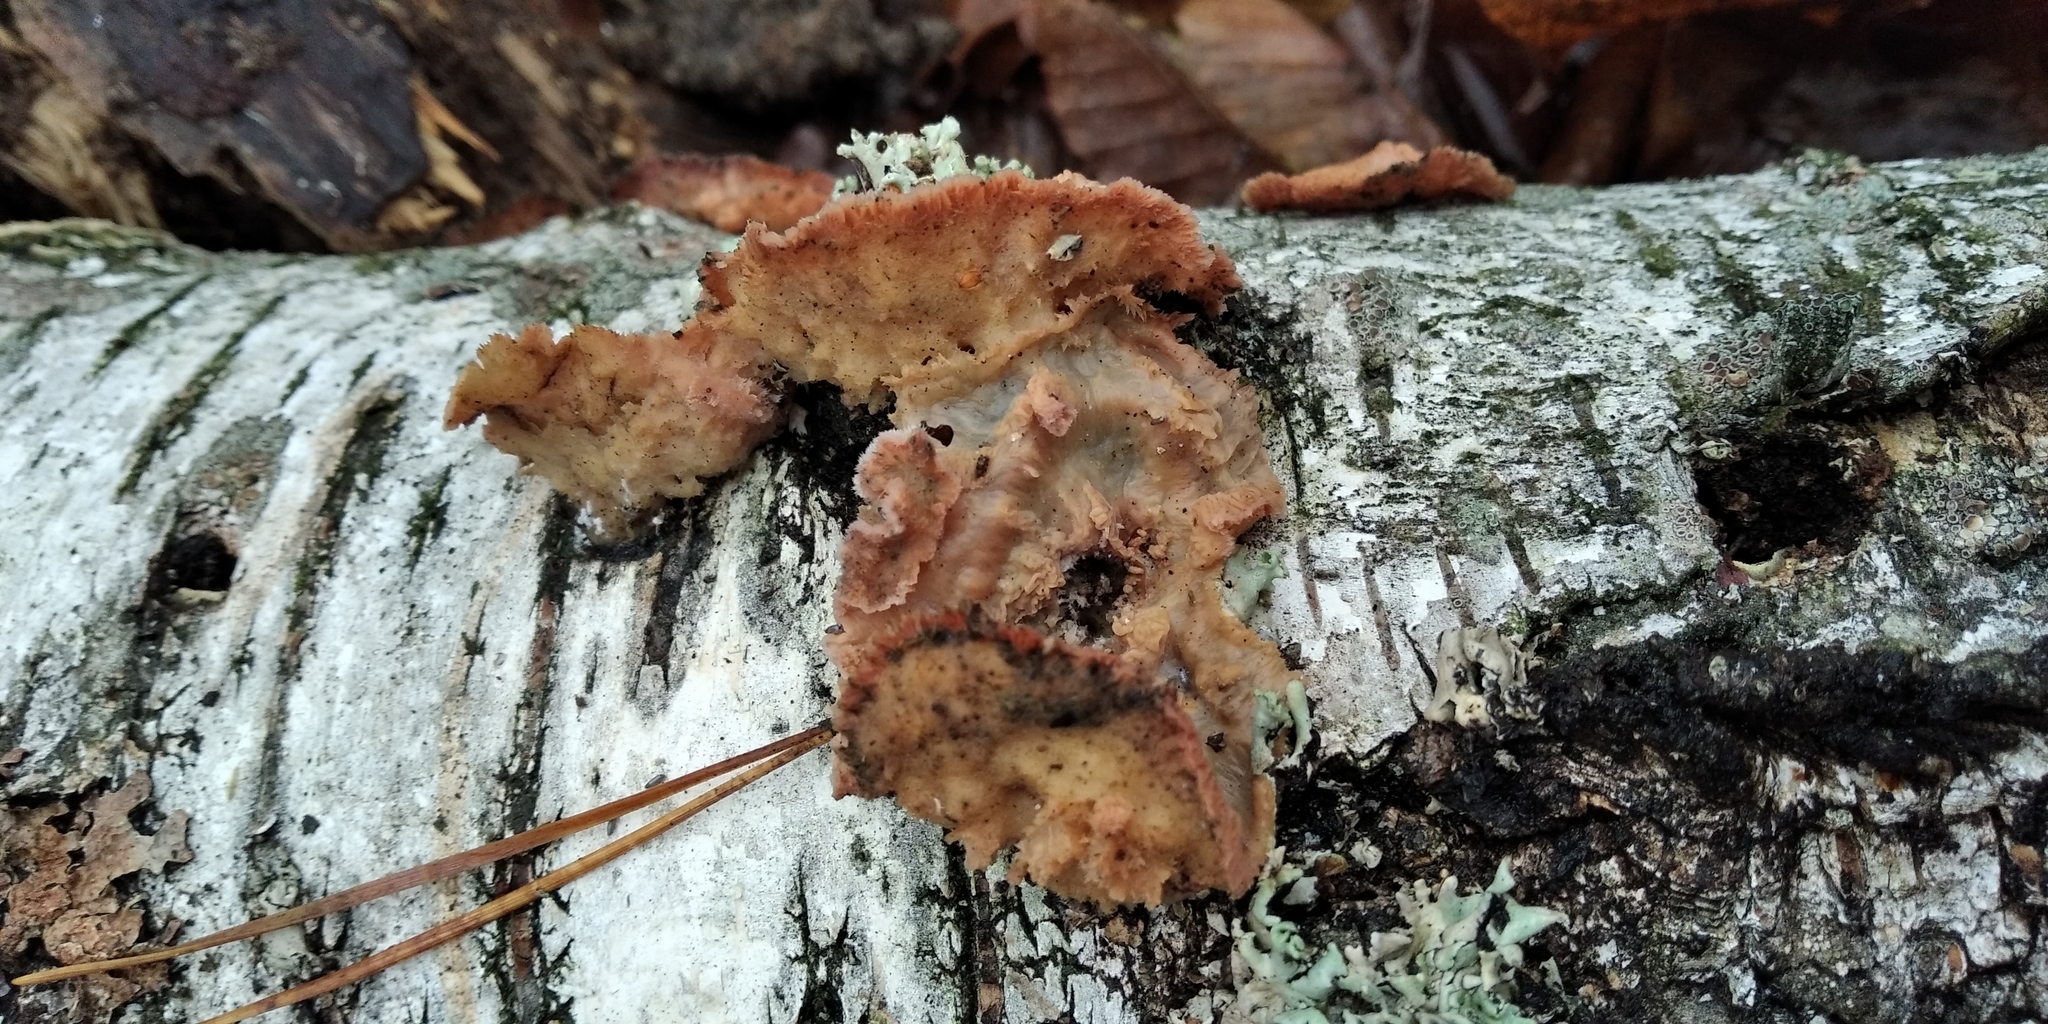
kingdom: Fungi
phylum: Basidiomycota
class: Agaricomycetes
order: Polyporales
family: Meruliaceae
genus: Phlebia
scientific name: Phlebia radiata
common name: Wrinkled crust
